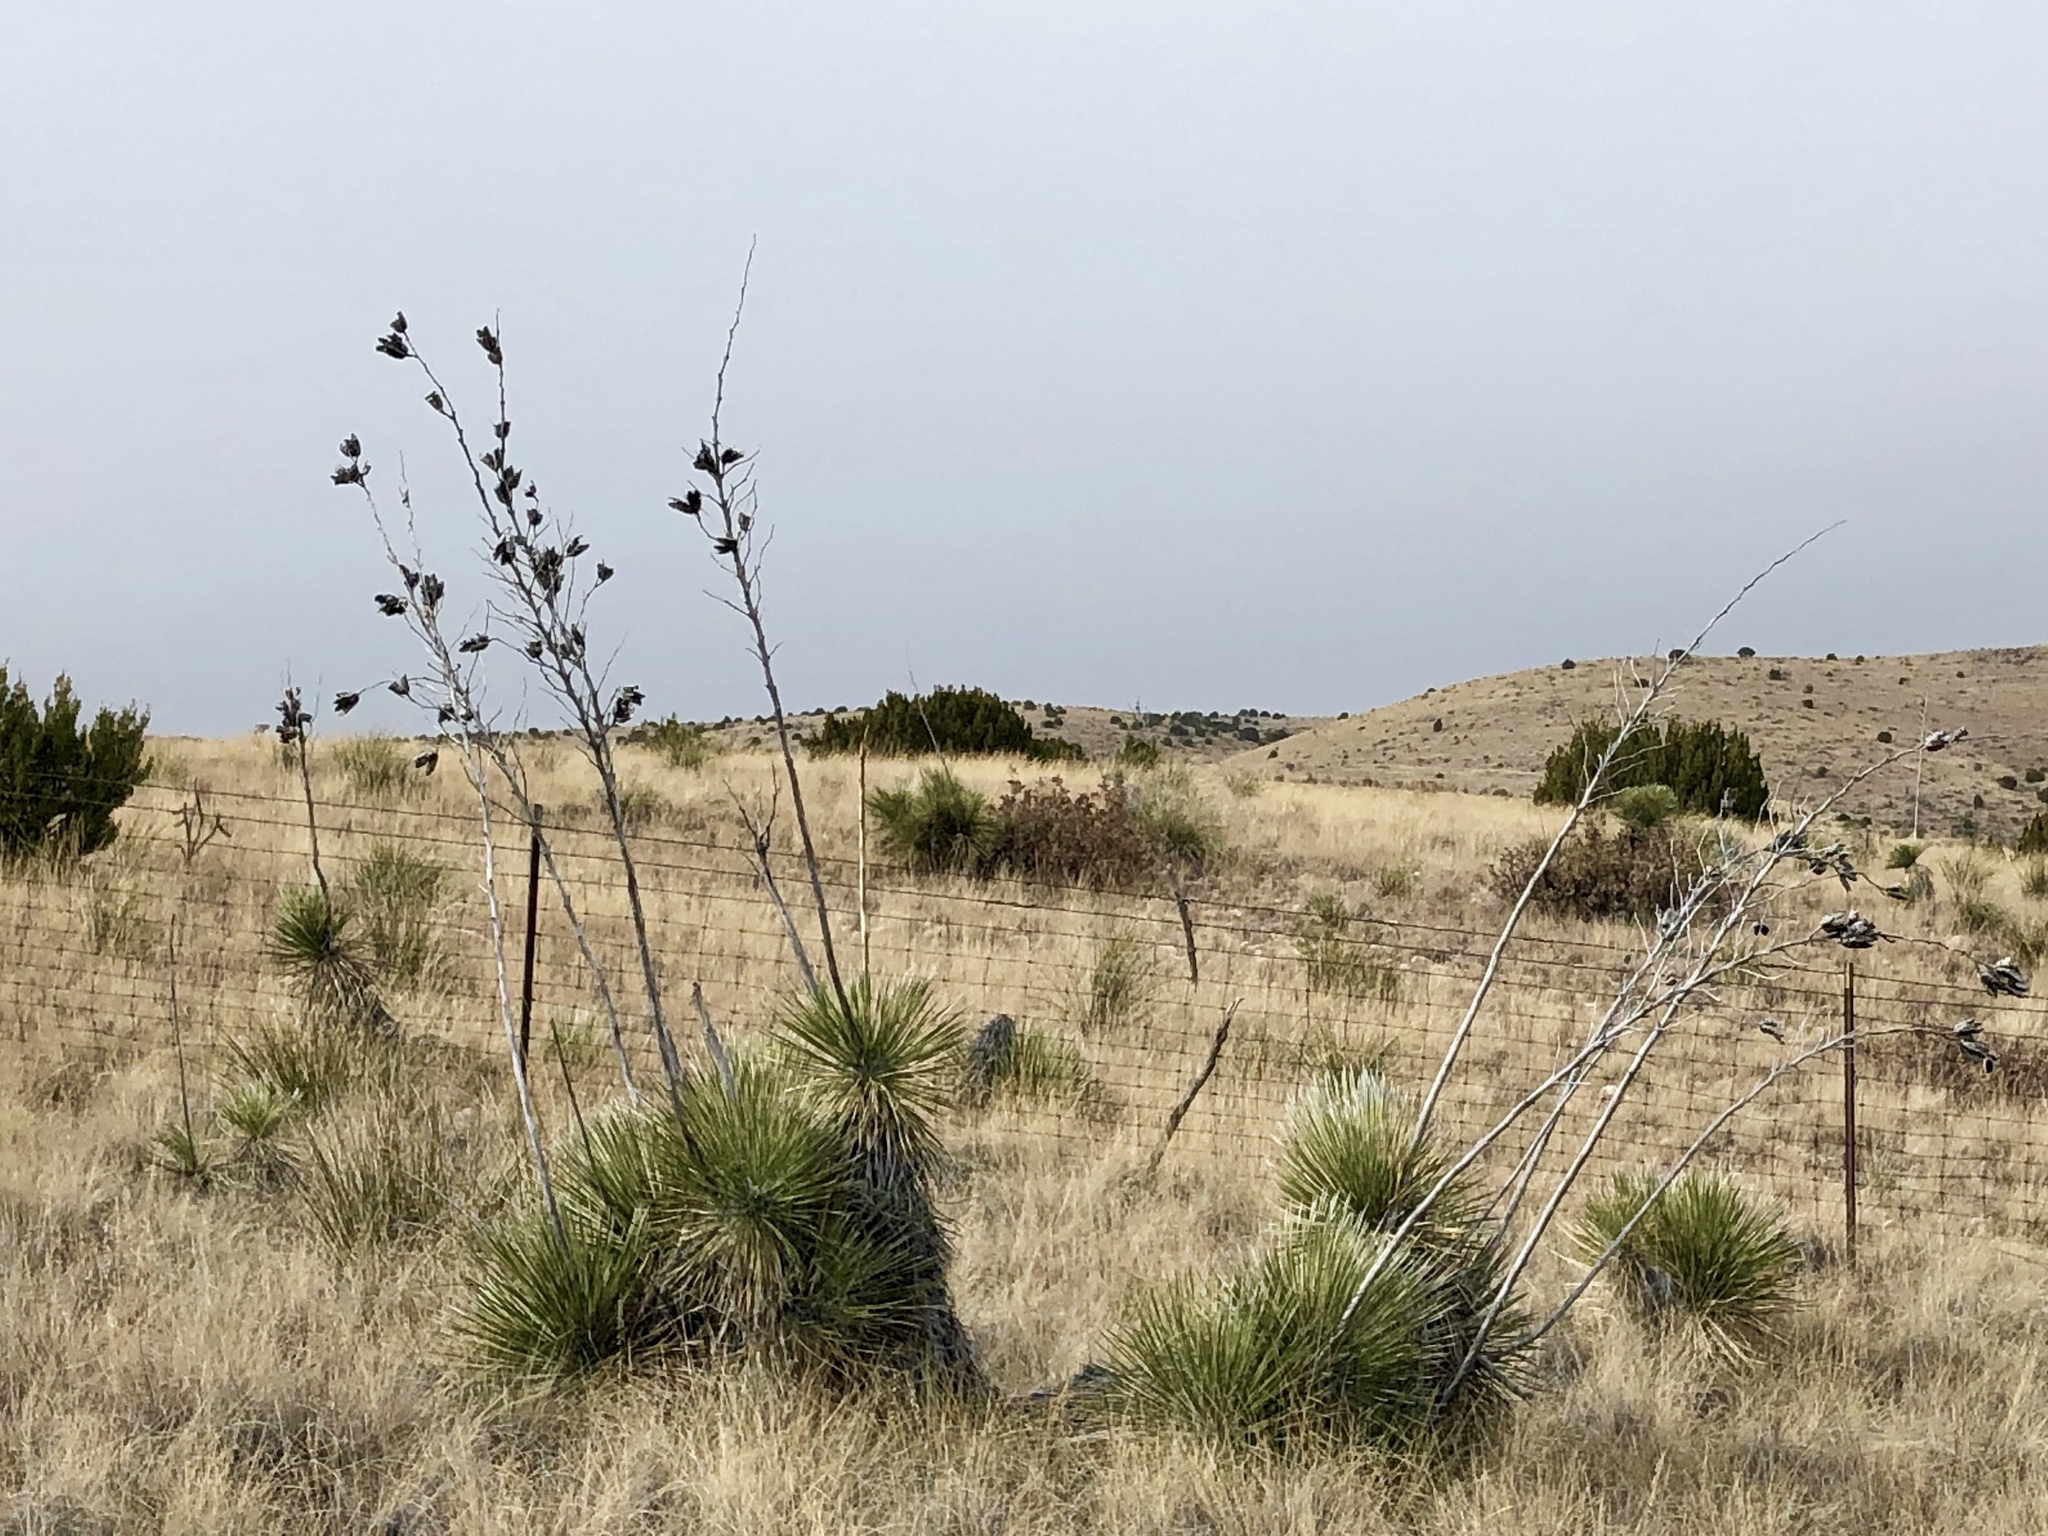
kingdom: Plantae
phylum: Tracheophyta
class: Liliopsida
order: Asparagales
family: Asparagaceae
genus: Yucca
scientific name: Yucca elata
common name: Palmella
